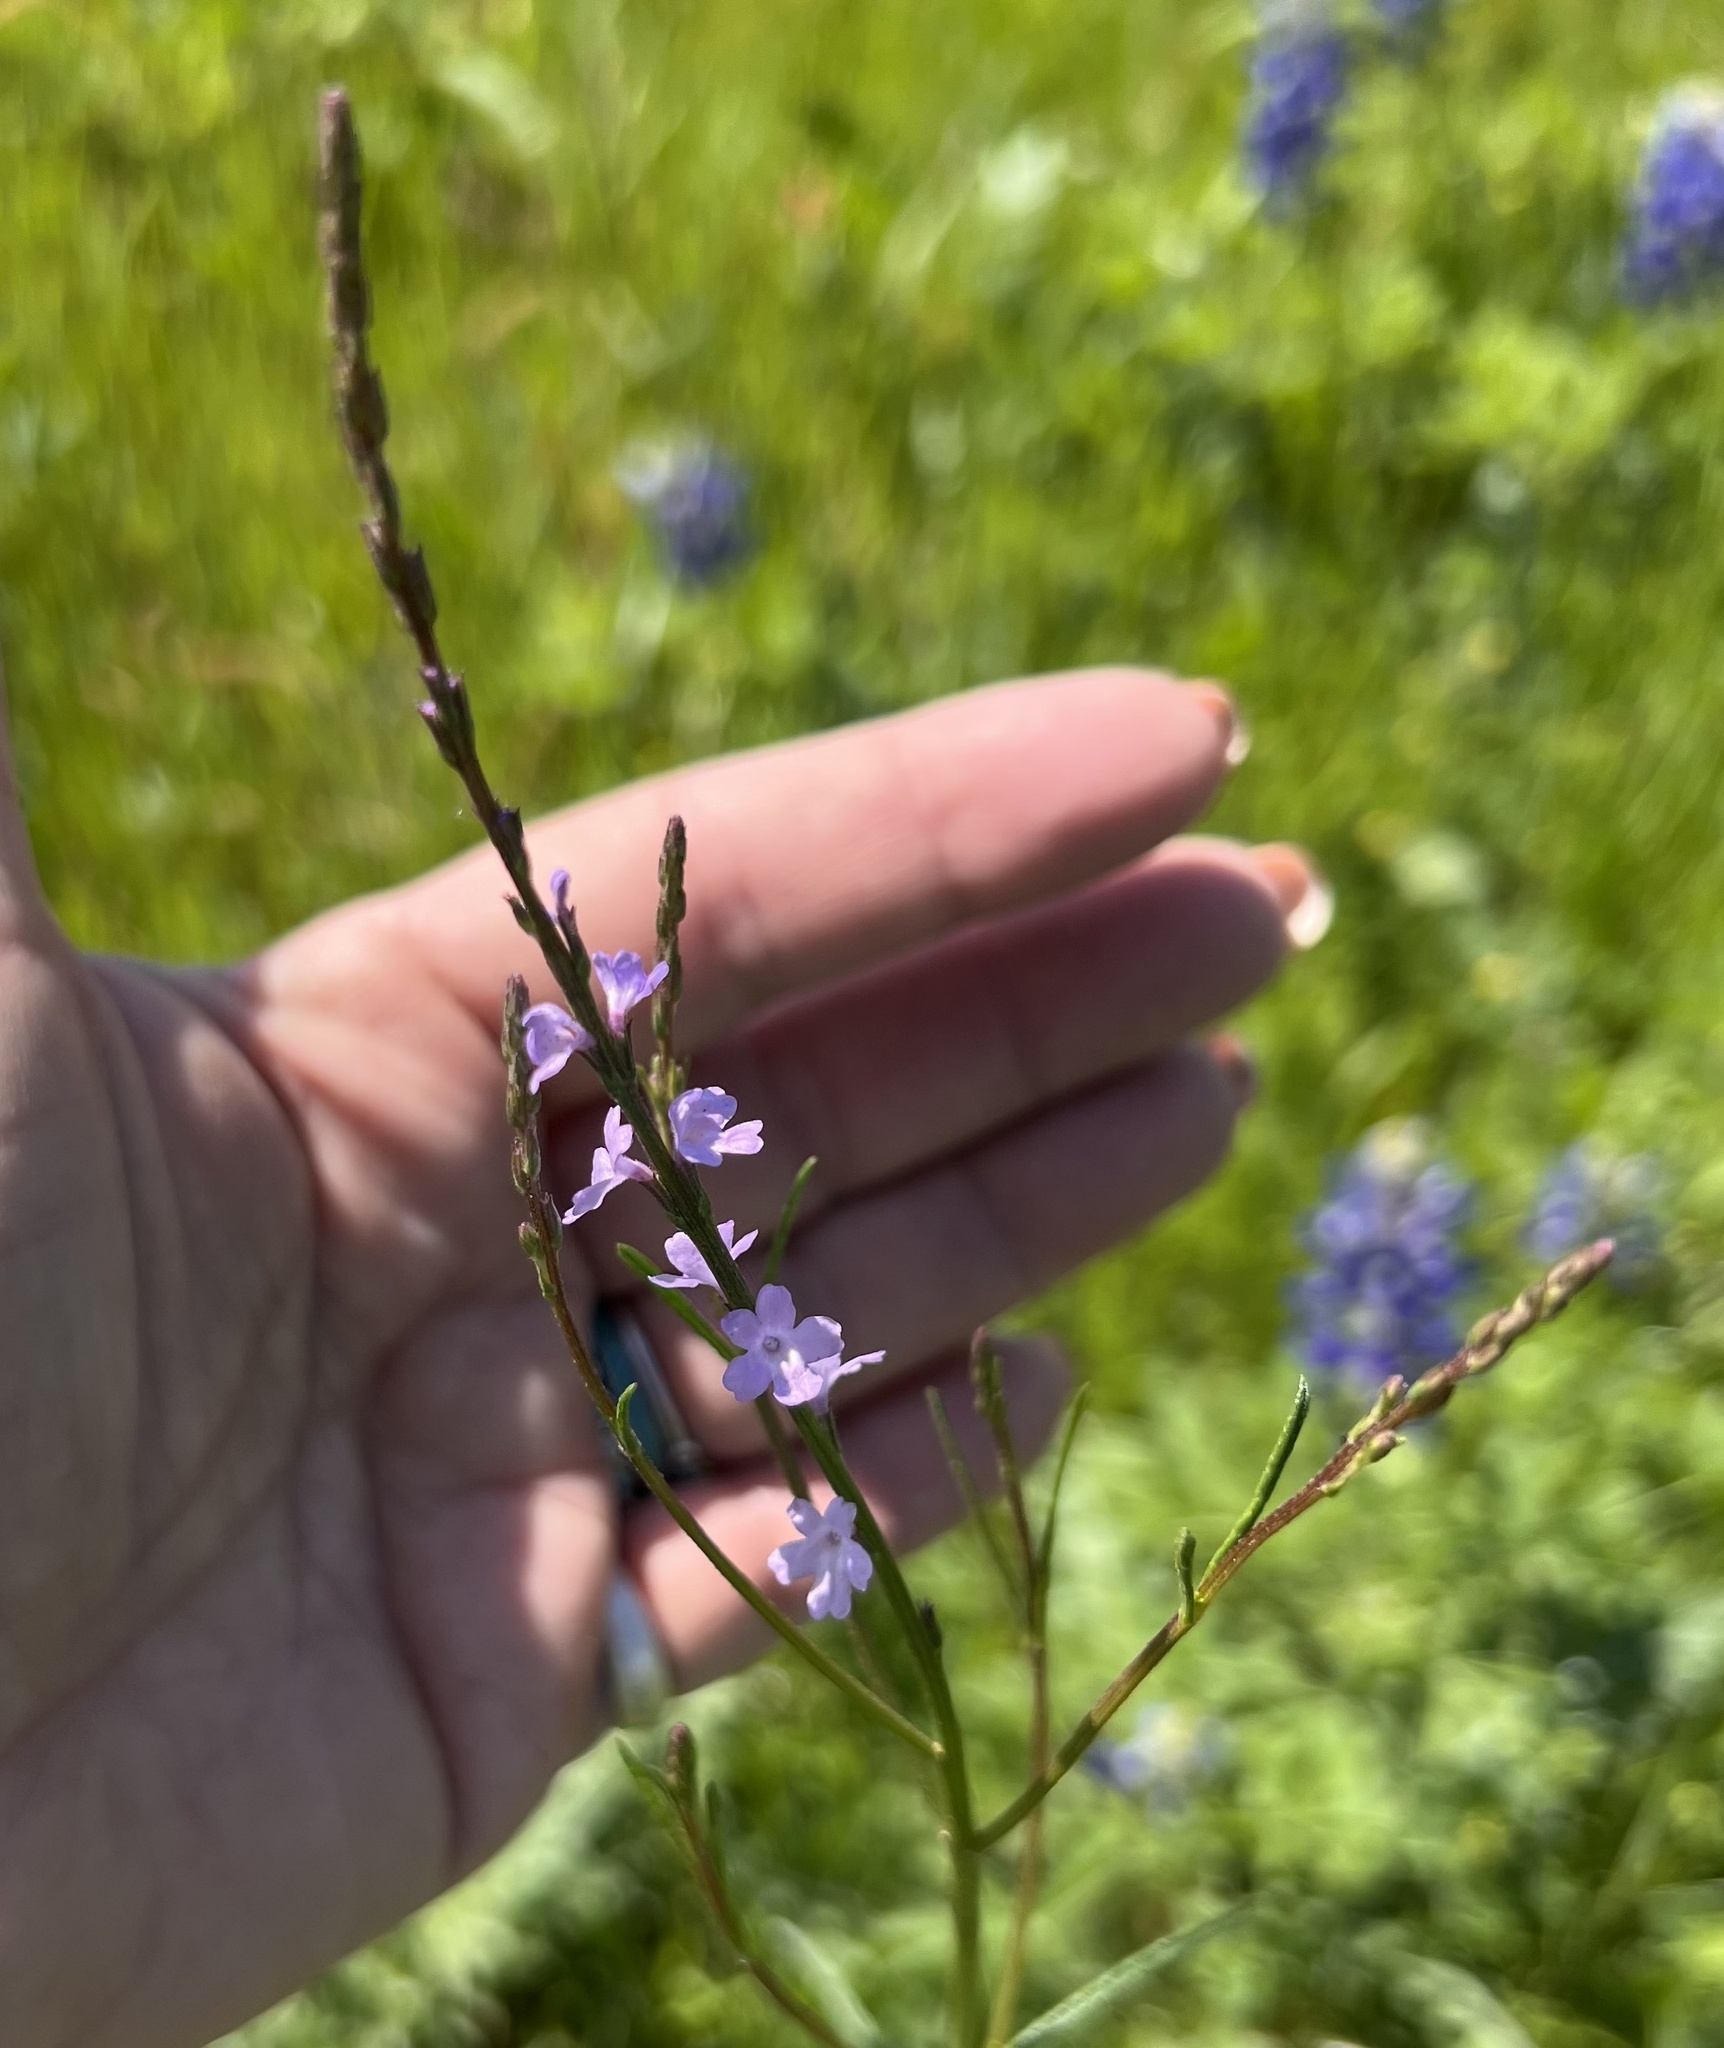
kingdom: Plantae
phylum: Tracheophyta
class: Magnoliopsida
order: Lamiales
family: Verbenaceae
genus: Verbena
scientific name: Verbena halei
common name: Texas vervain
